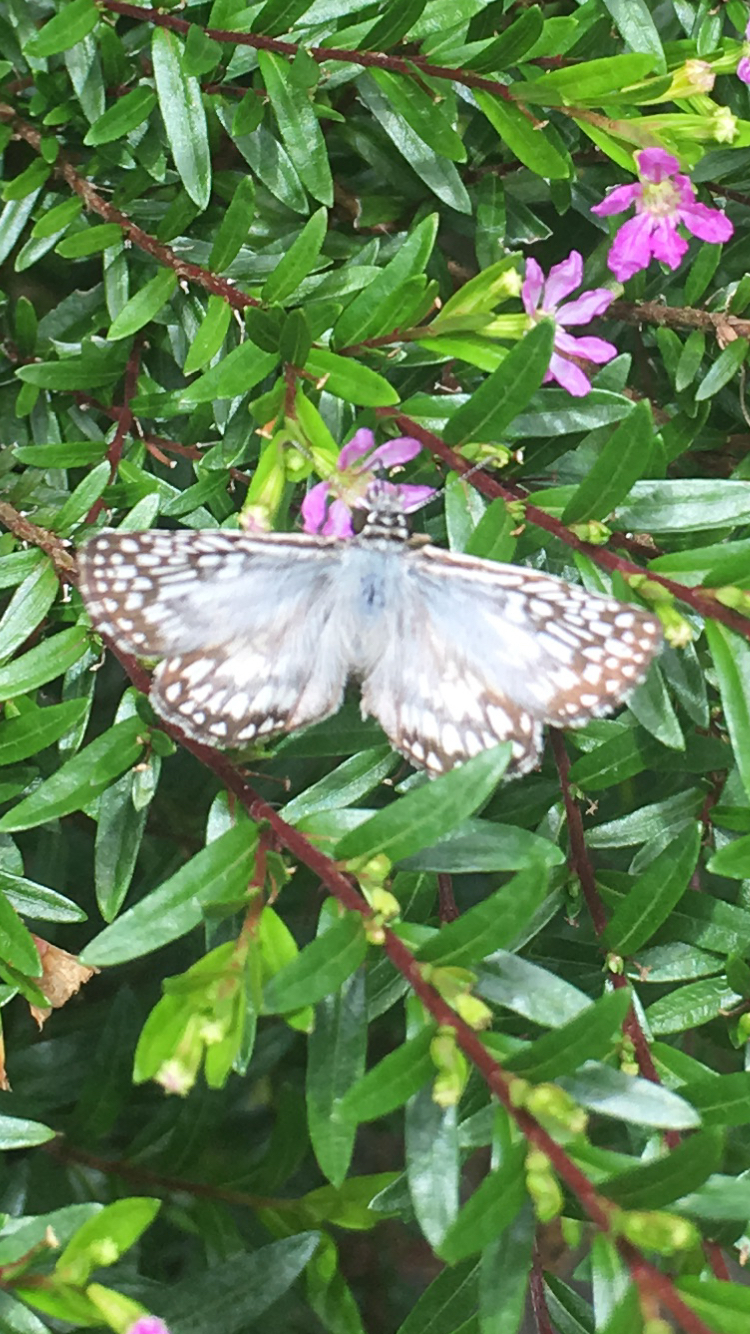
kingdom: Animalia
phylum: Arthropoda
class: Insecta
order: Lepidoptera
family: Hesperiidae
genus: Pyrgus
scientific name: Pyrgus oileus
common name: Tropical checkered-skipper
